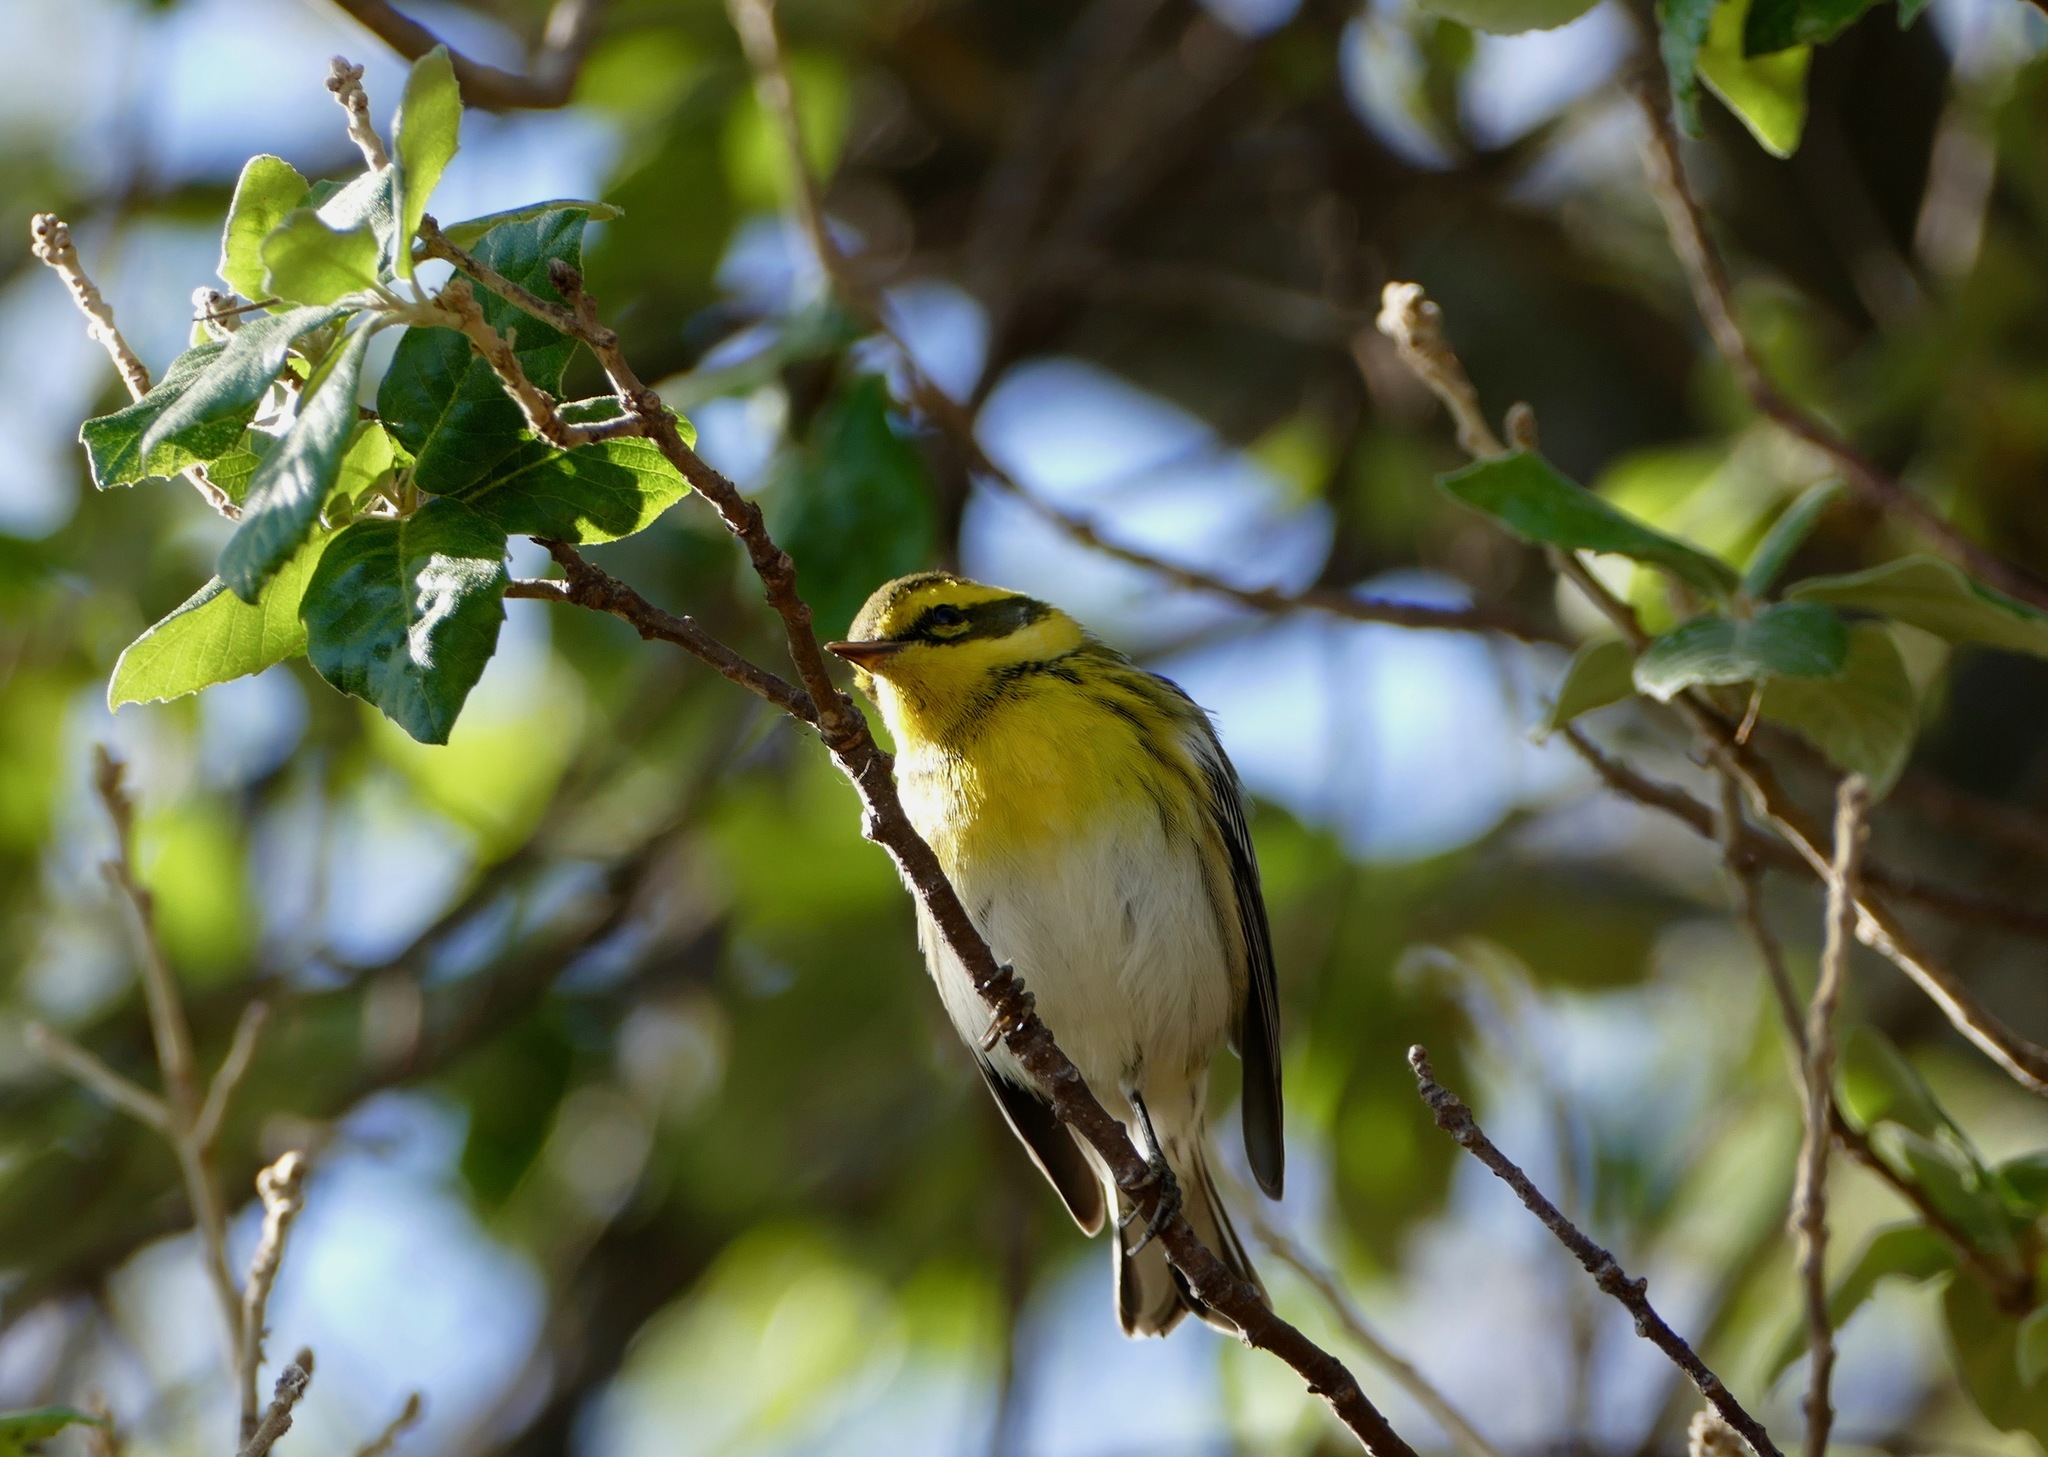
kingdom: Animalia
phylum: Chordata
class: Aves
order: Passeriformes
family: Parulidae
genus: Setophaga
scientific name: Setophaga townsendi
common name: Townsend's warbler
